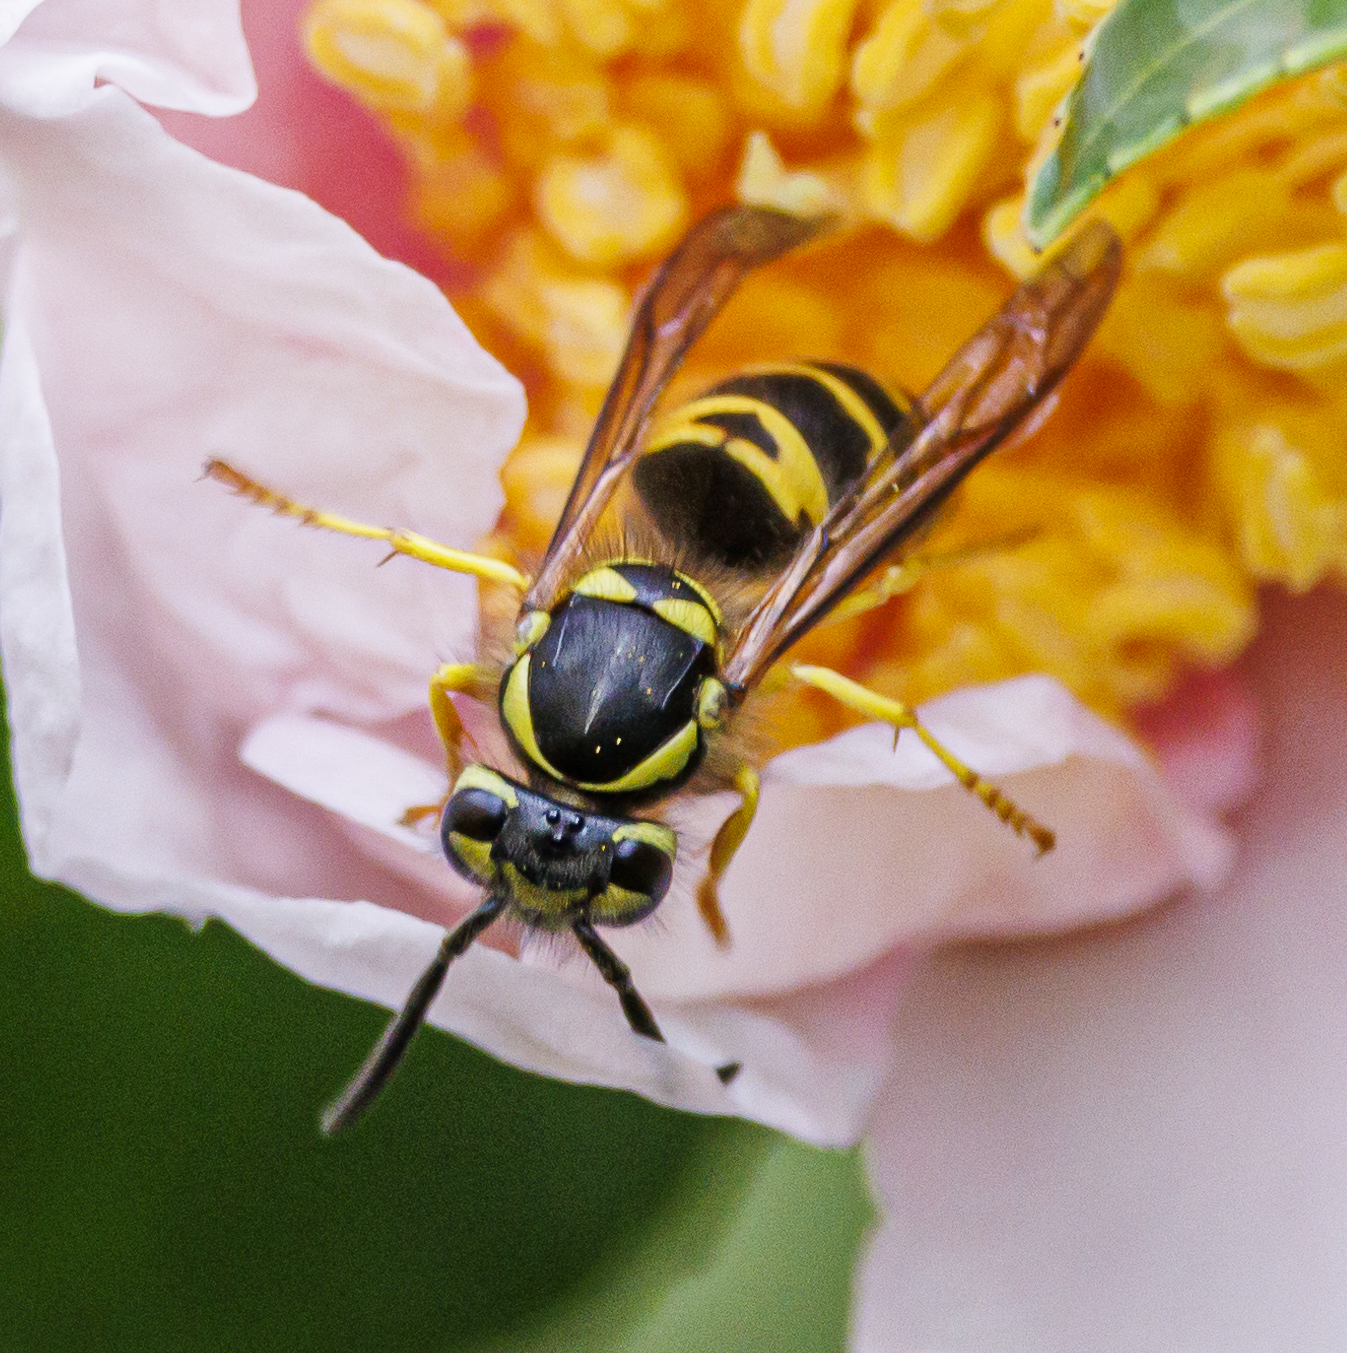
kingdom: Animalia
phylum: Arthropoda
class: Insecta
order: Hymenoptera
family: Vespidae
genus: Vespula
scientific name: Vespula maculifrons
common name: Eastern yellowjacket
